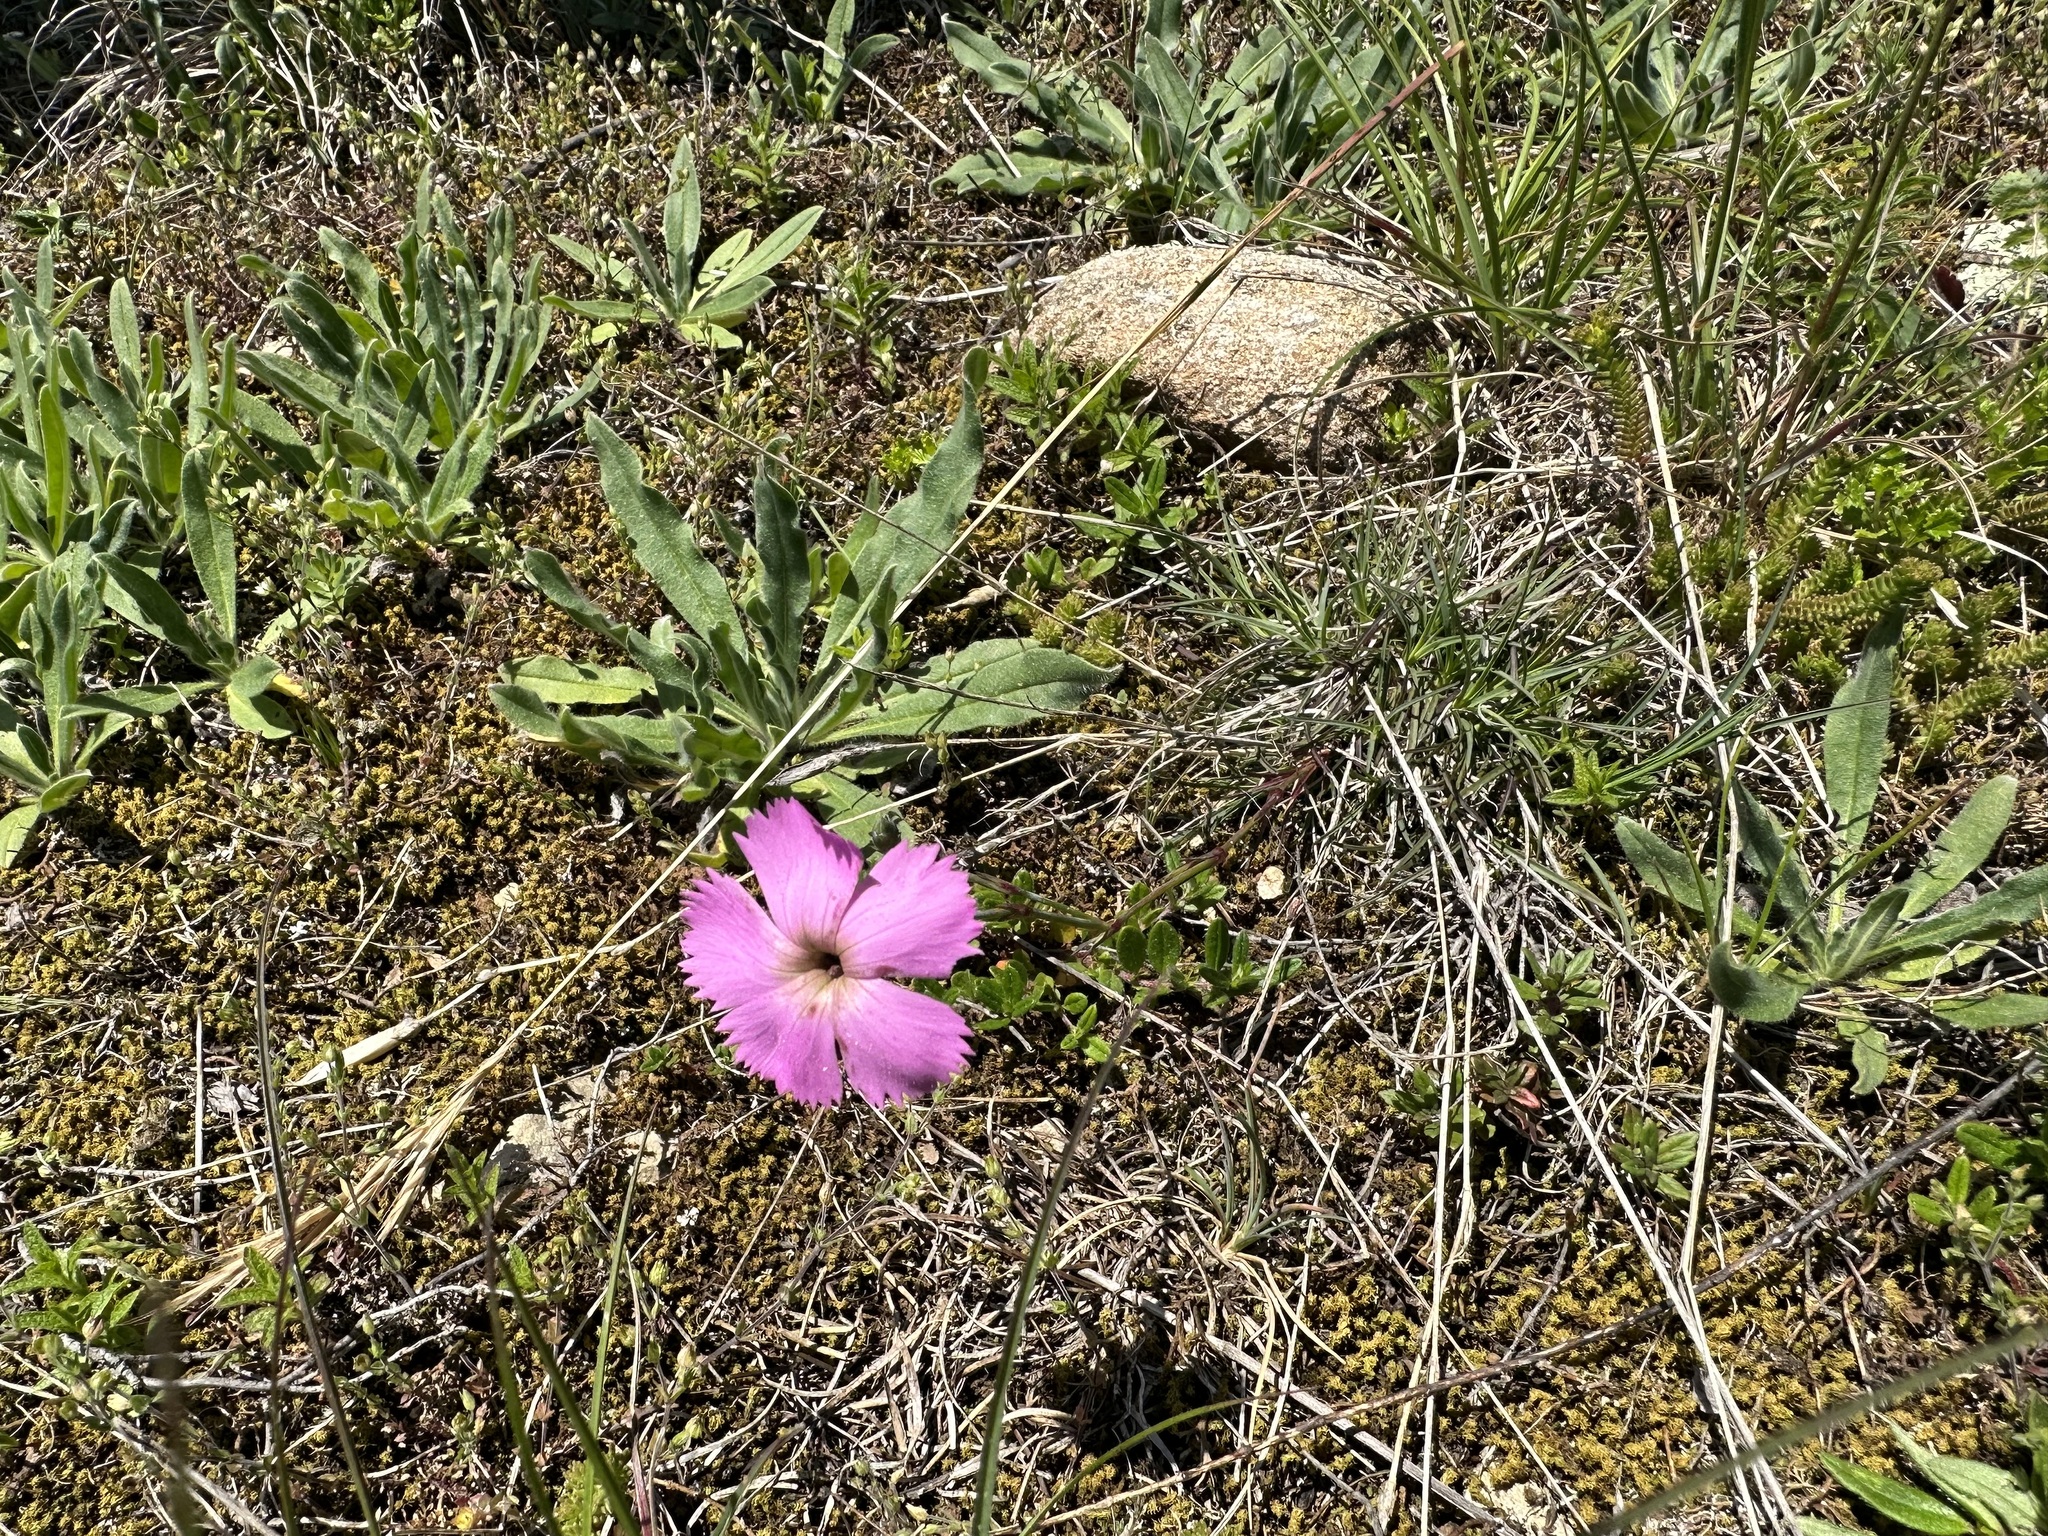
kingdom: Plantae
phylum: Tracheophyta
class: Magnoliopsida
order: Caryophyllales
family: Caryophyllaceae
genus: Dianthus
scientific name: Dianthus sylvestris
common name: Wood pink
